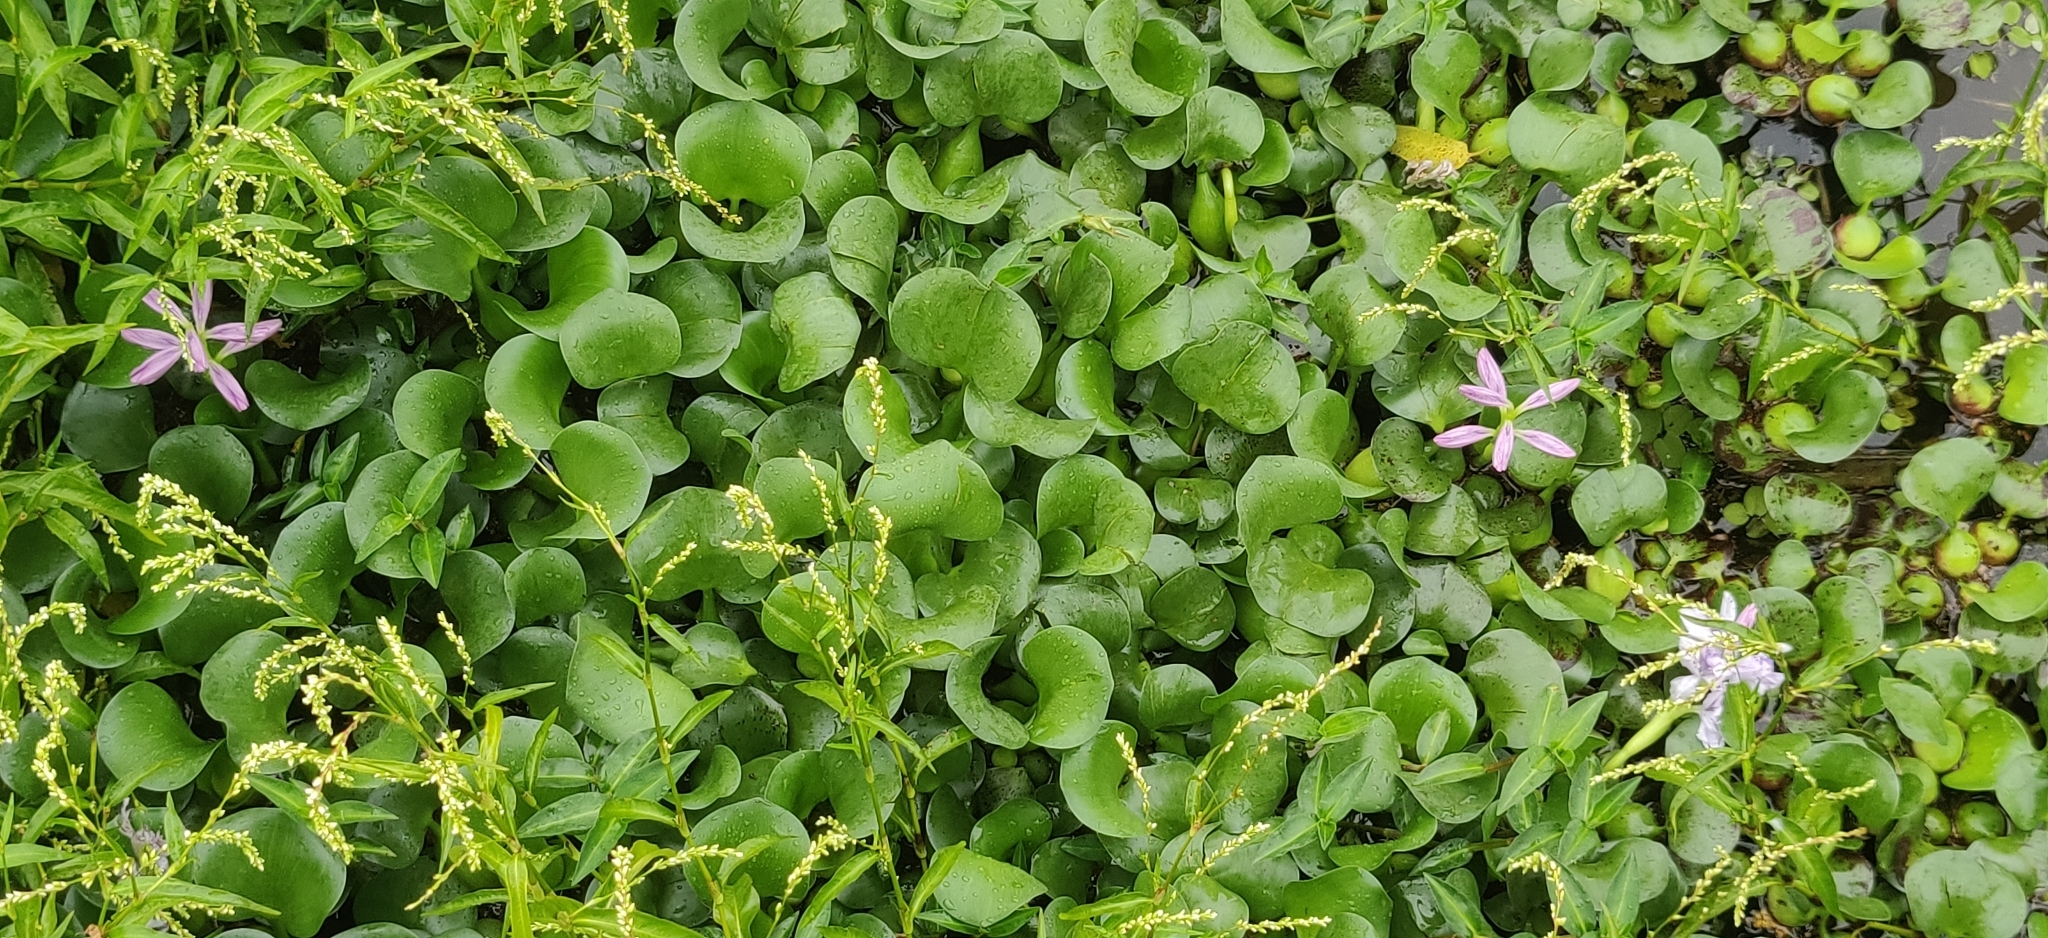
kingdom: Plantae
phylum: Tracheophyta
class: Liliopsida
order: Commelinales
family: Pontederiaceae
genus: Pontederia
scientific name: Pontederia crassipes
